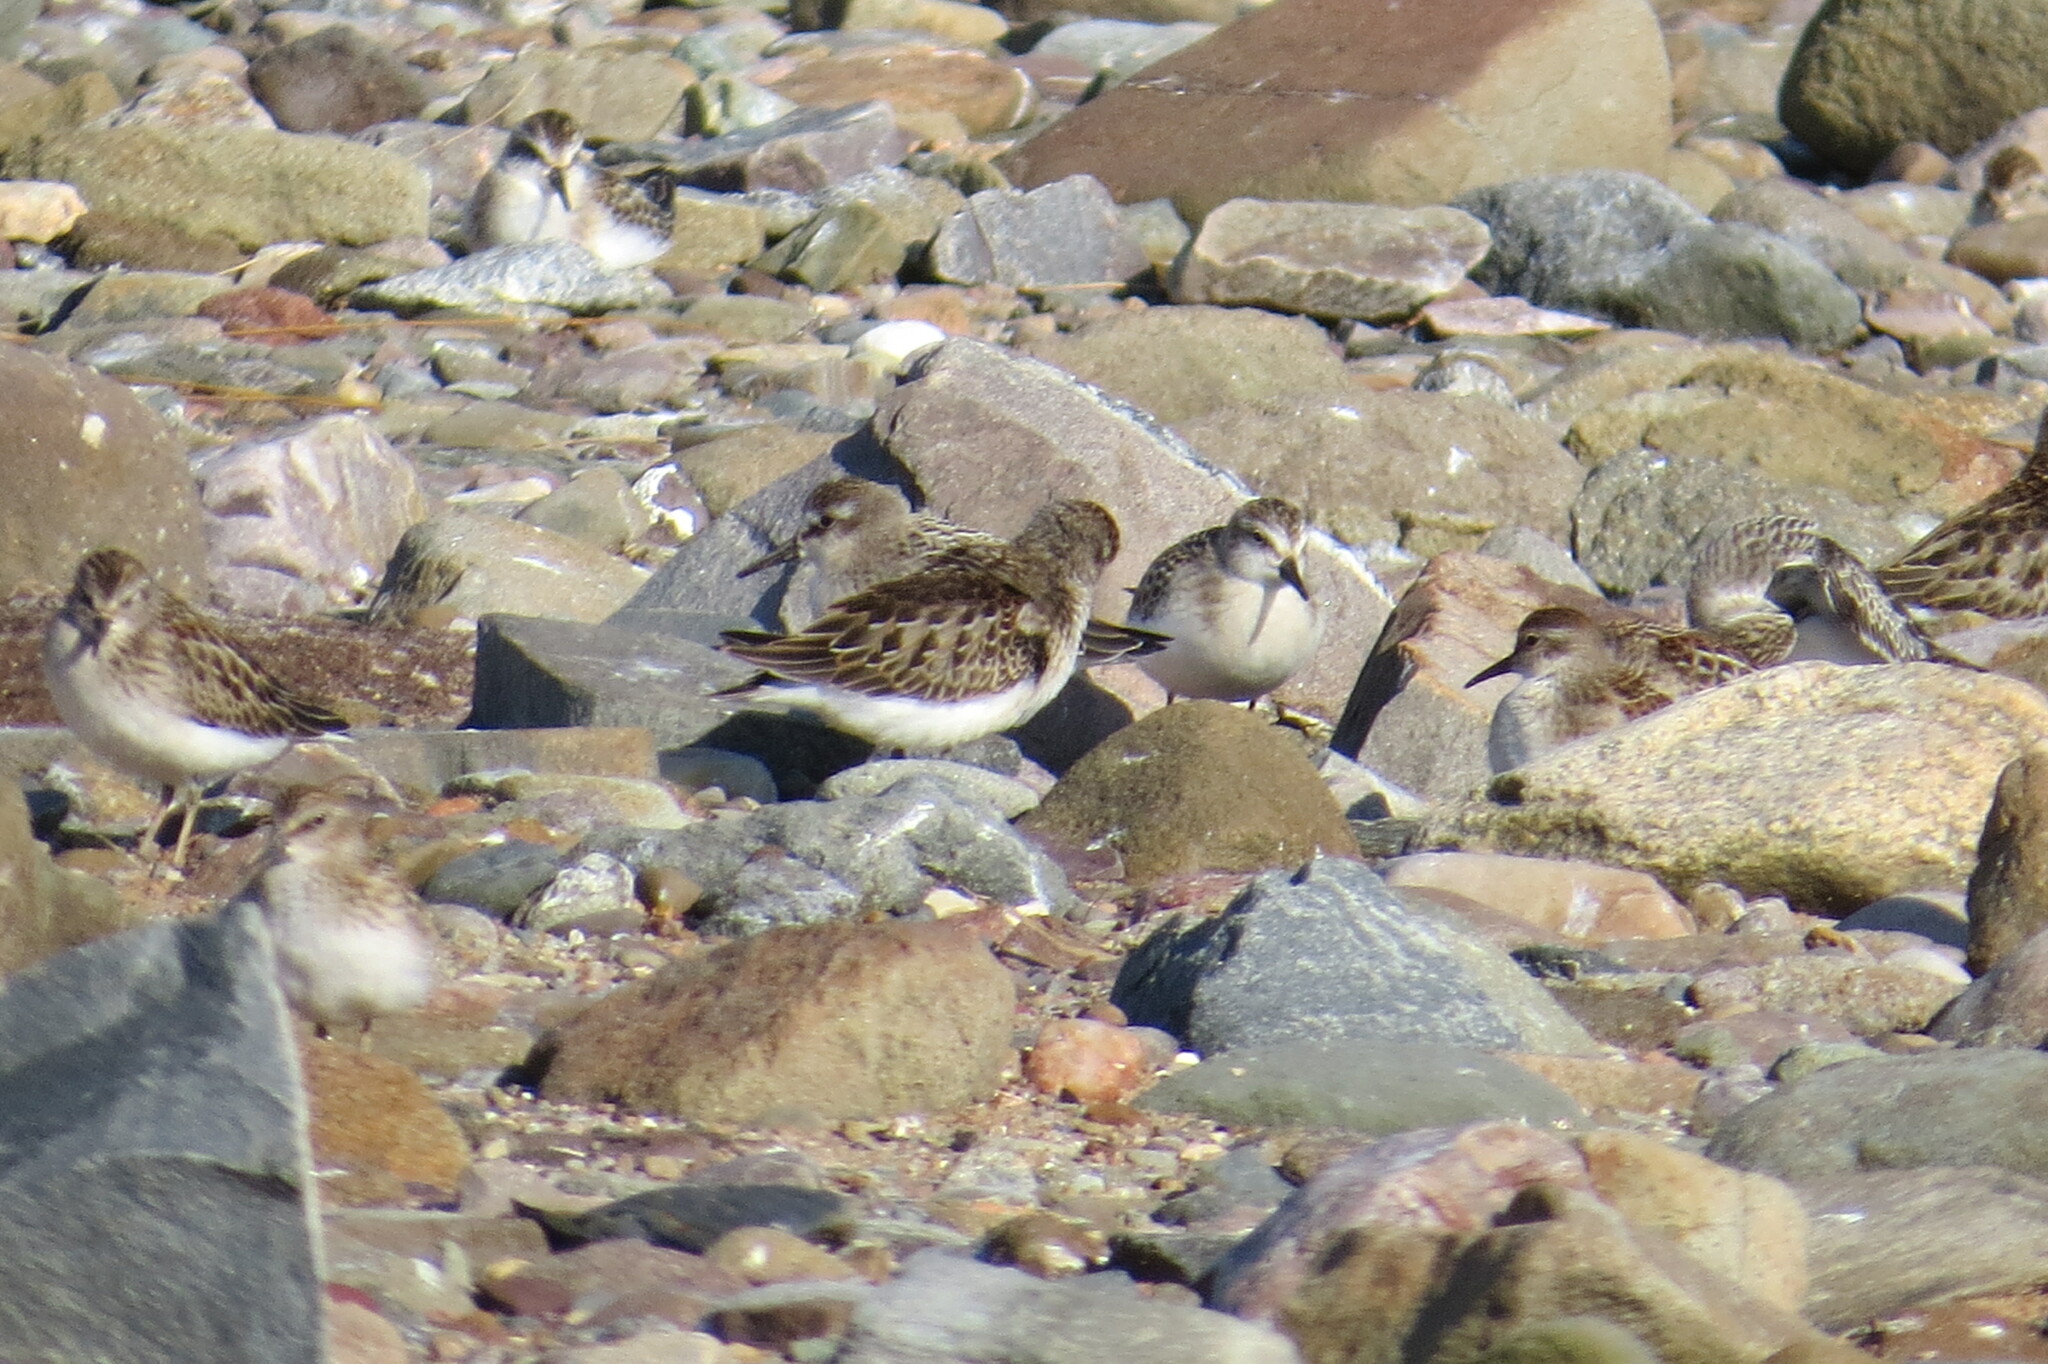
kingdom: Animalia
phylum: Chordata
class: Aves
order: Charadriiformes
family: Scolopacidae
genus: Calidris
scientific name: Calidris minutilla
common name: Least sandpiper
